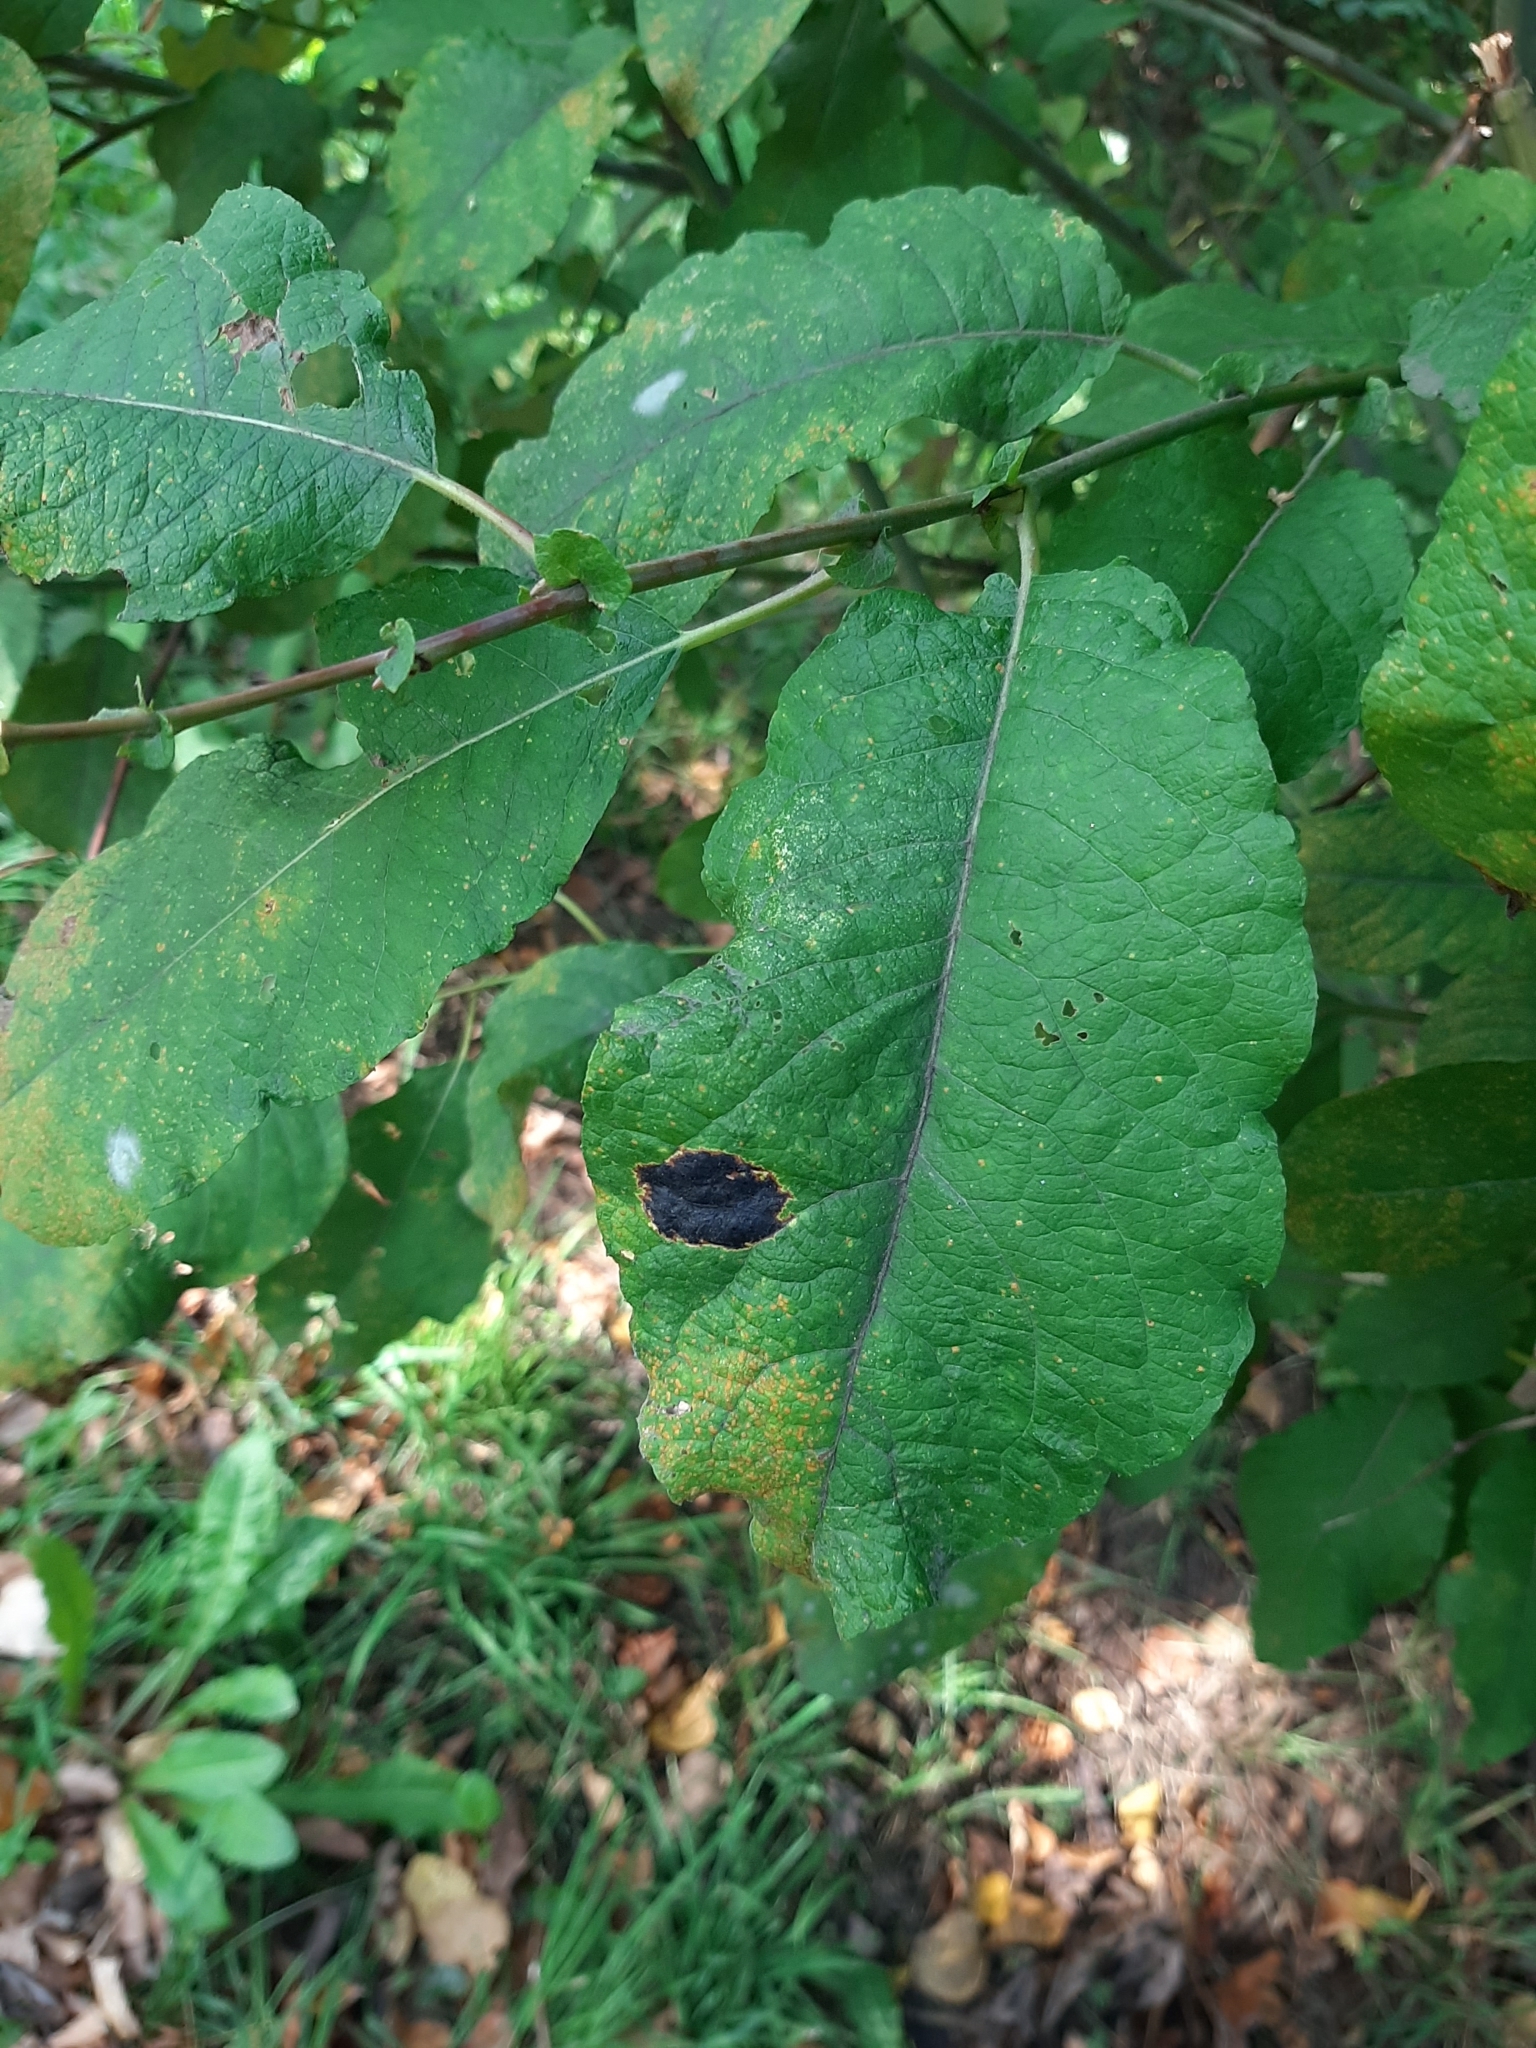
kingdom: Fungi
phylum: Ascomycota
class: Leotiomycetes
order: Rhytismatales
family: Rhytismataceae
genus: Rhytisma
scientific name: Rhytisma salicinum
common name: Willow tarspot
